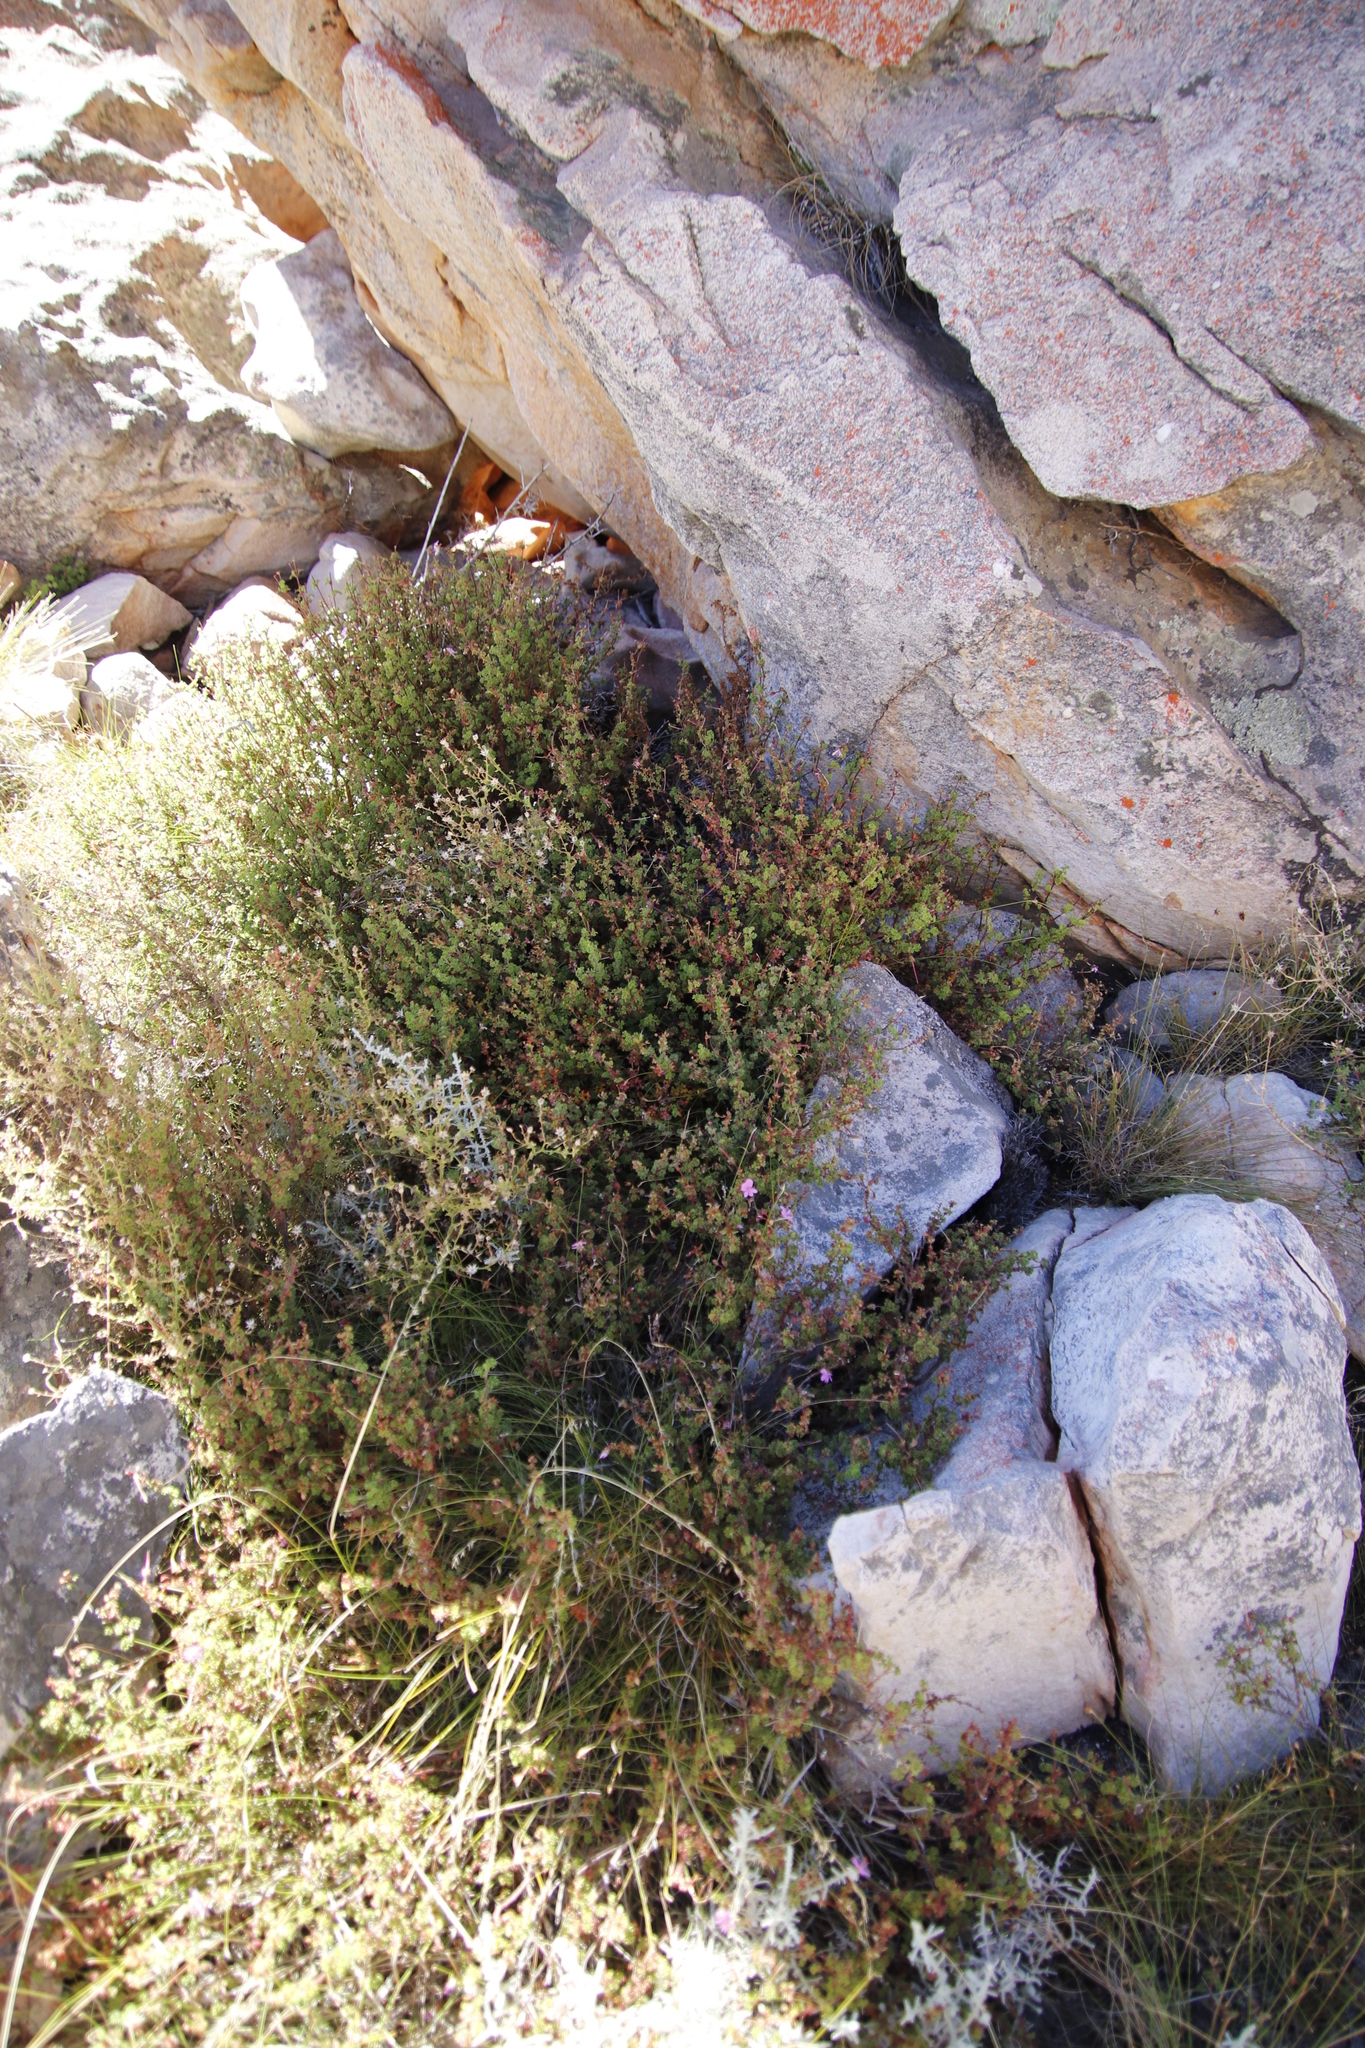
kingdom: Plantae
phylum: Tracheophyta
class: Magnoliopsida
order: Geraniales
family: Geraniaceae
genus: Pelargonium
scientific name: Pelargonium englerianum
